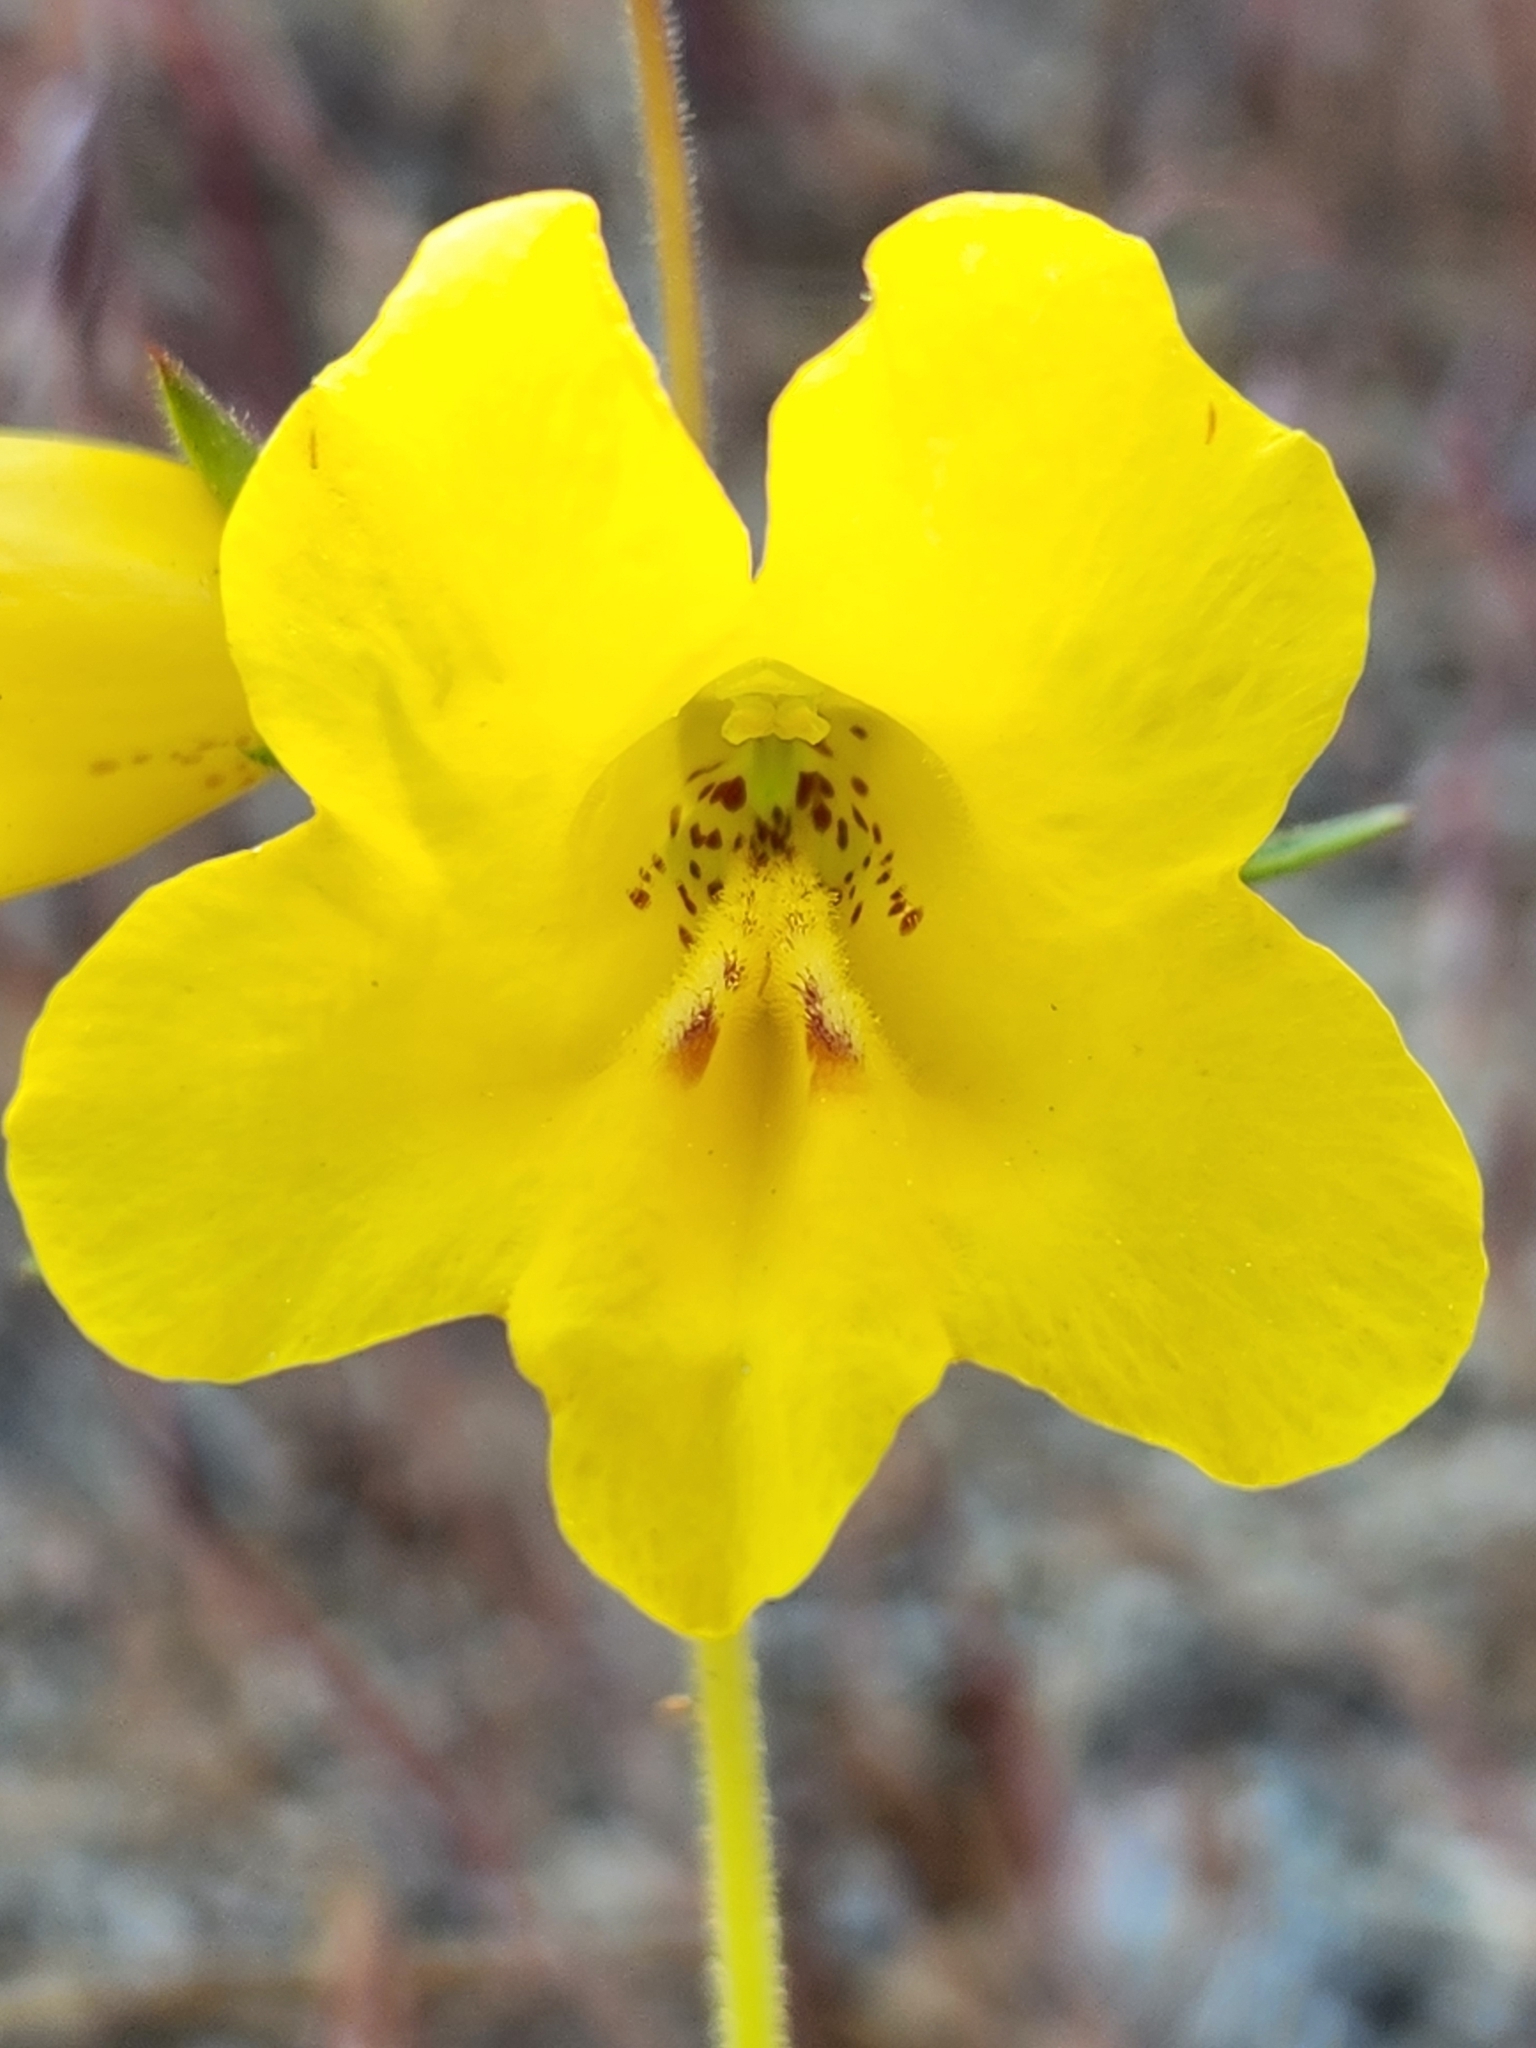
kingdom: Plantae
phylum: Tracheophyta
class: Magnoliopsida
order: Lamiales
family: Phrymaceae
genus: Diplacus
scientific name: Diplacus brevipes
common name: Wide-throat yellow monkey-flower
